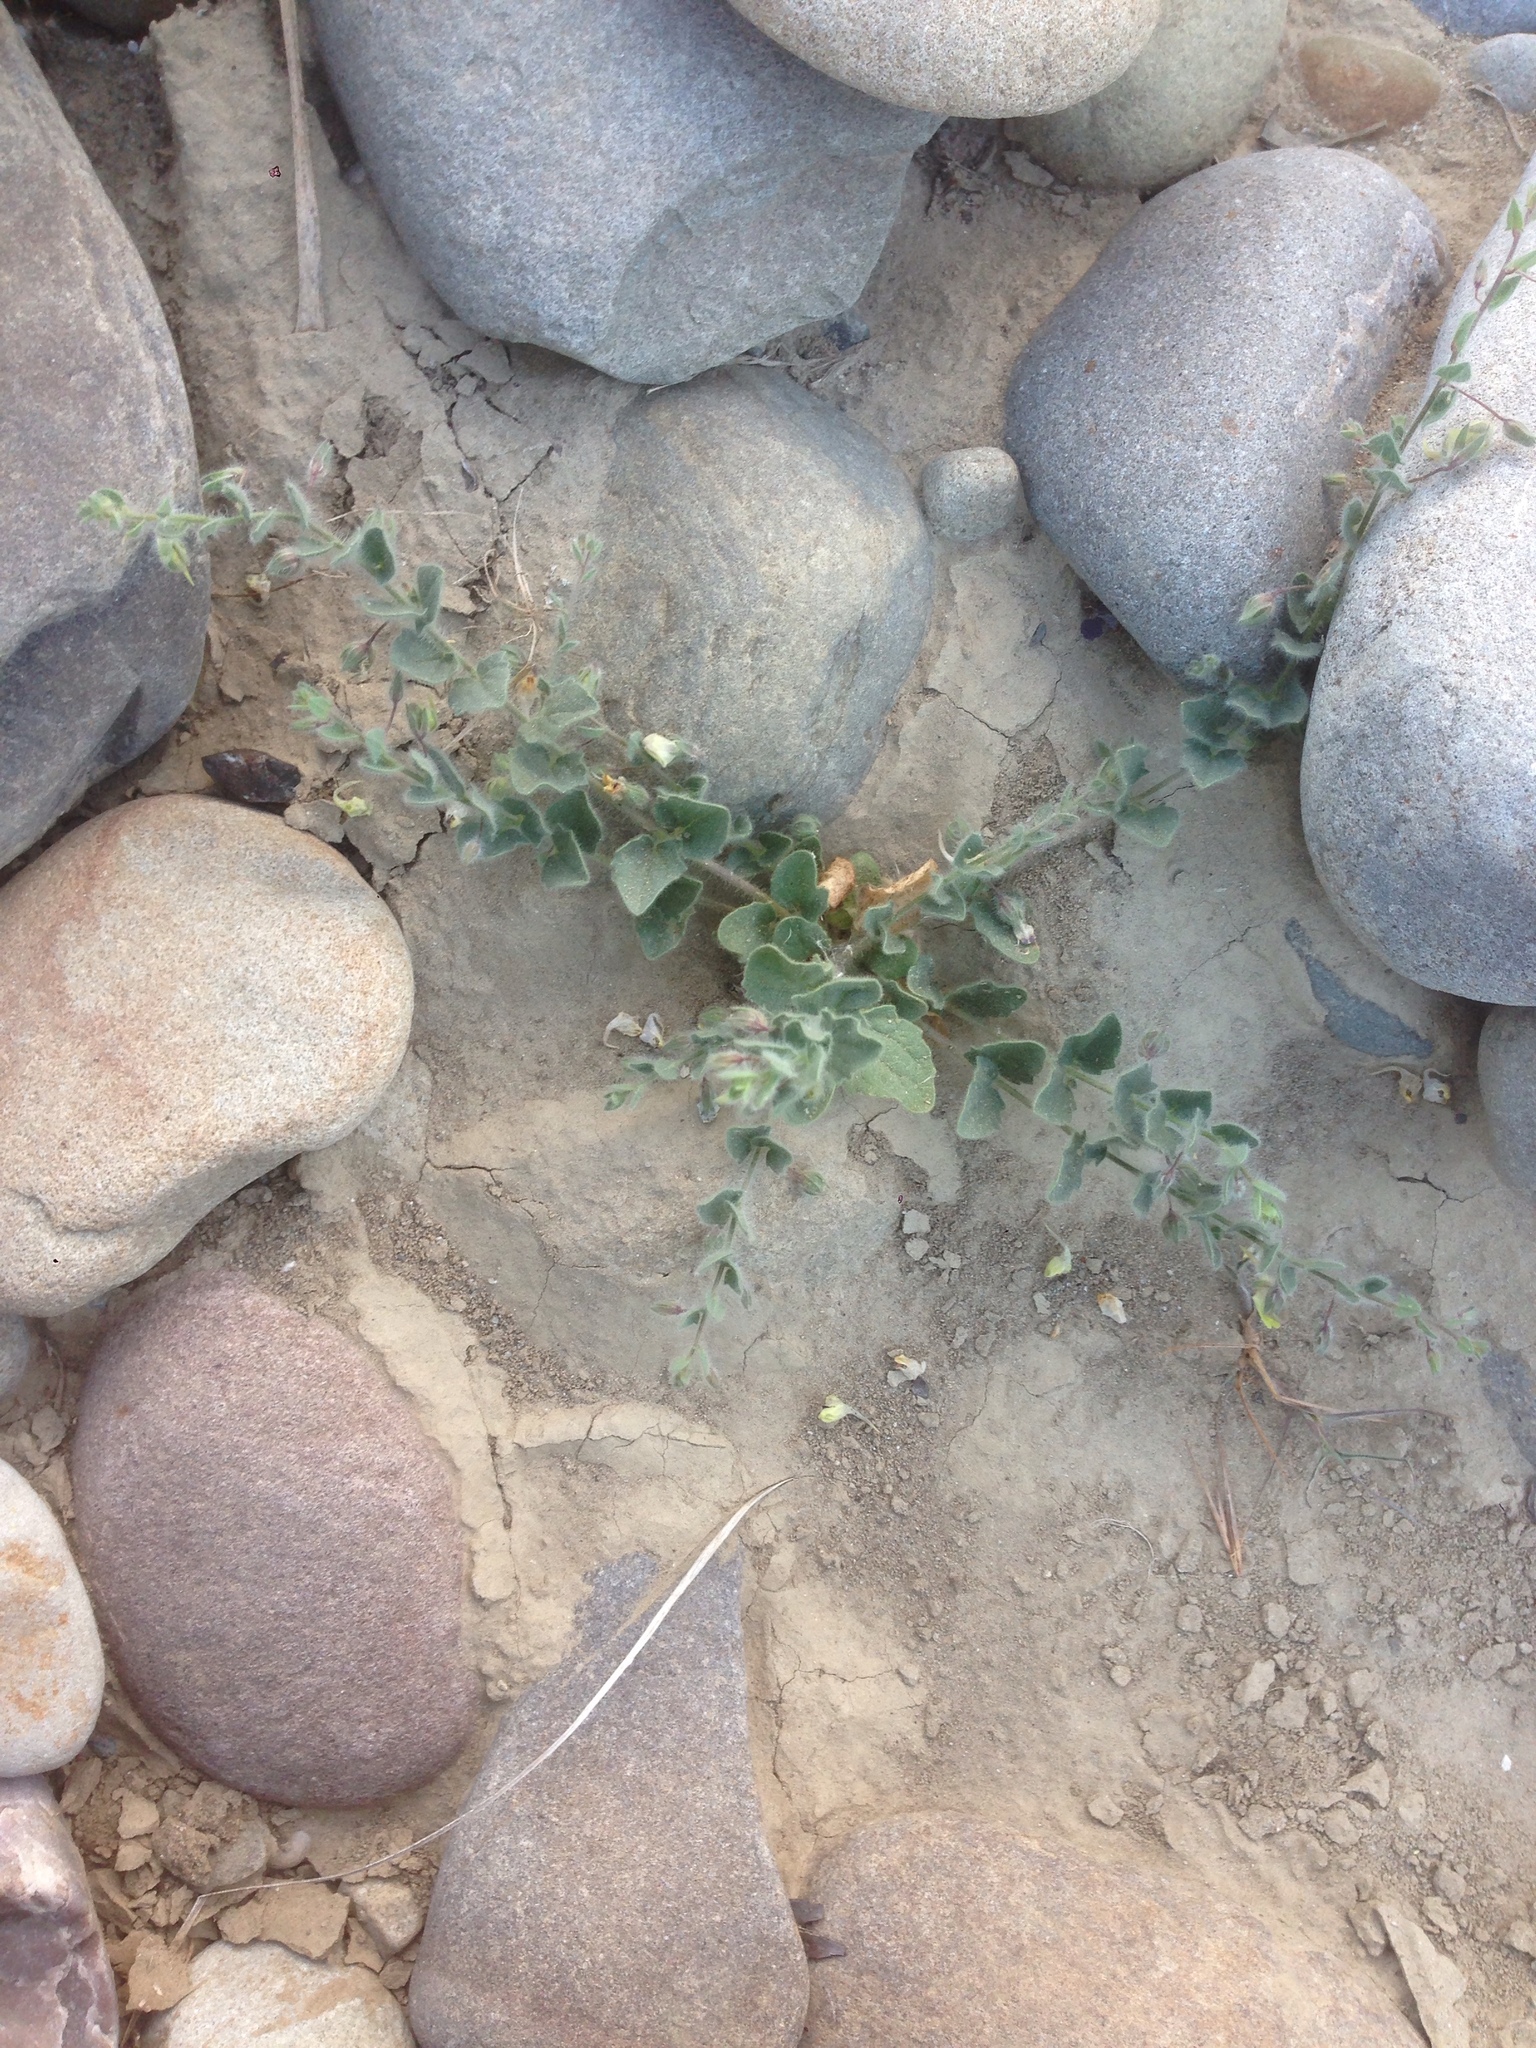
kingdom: Plantae
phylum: Tracheophyta
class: Magnoliopsida
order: Lamiales
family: Plantaginaceae
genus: Kickxia
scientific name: Kickxia elatine
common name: Sharp-leaved fluellen
